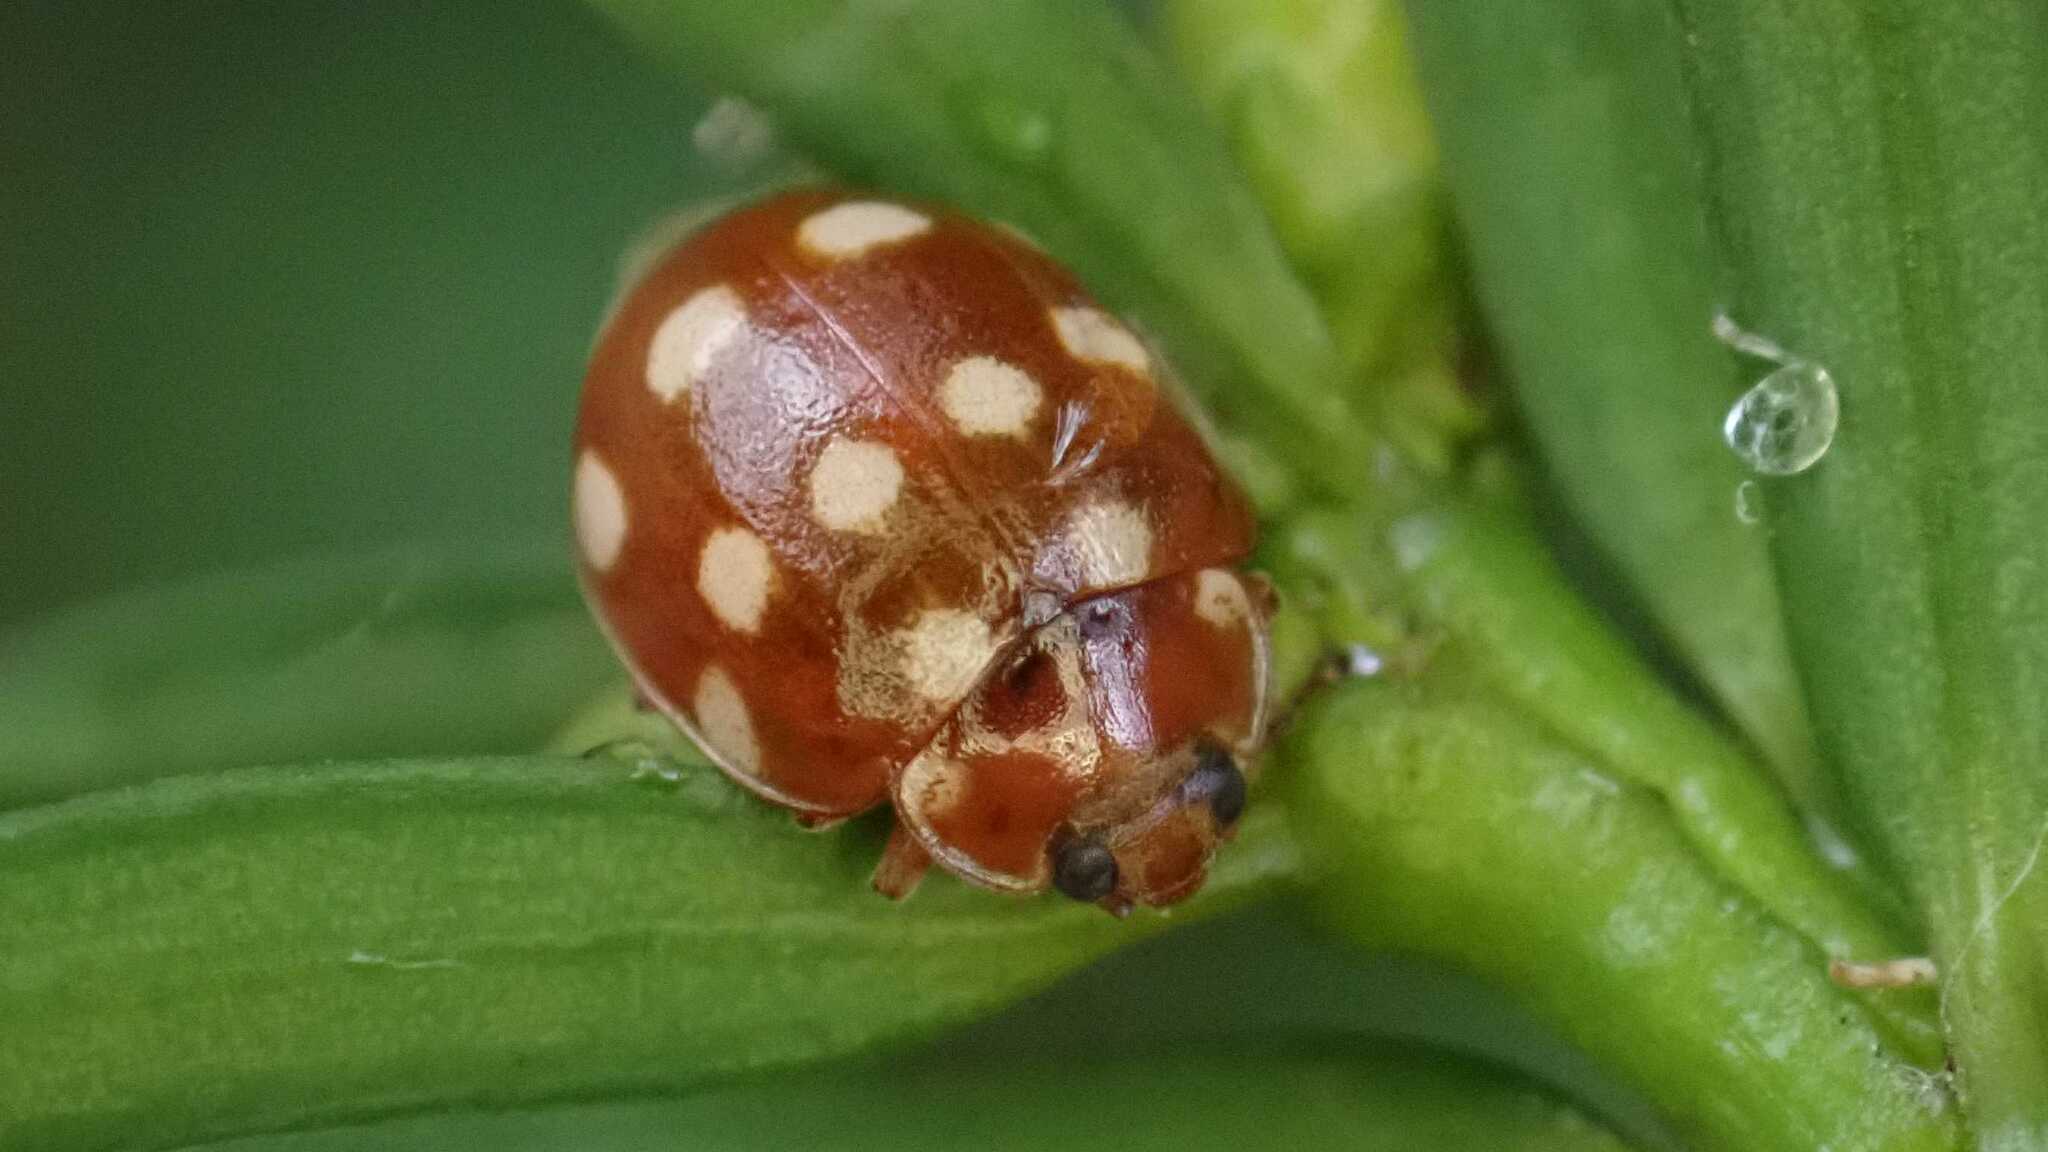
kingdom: Animalia
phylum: Arthropoda
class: Insecta
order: Coleoptera
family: Coccinellidae
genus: Calvia
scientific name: Calvia quatuordecimguttata
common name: Cream-spot ladybird
